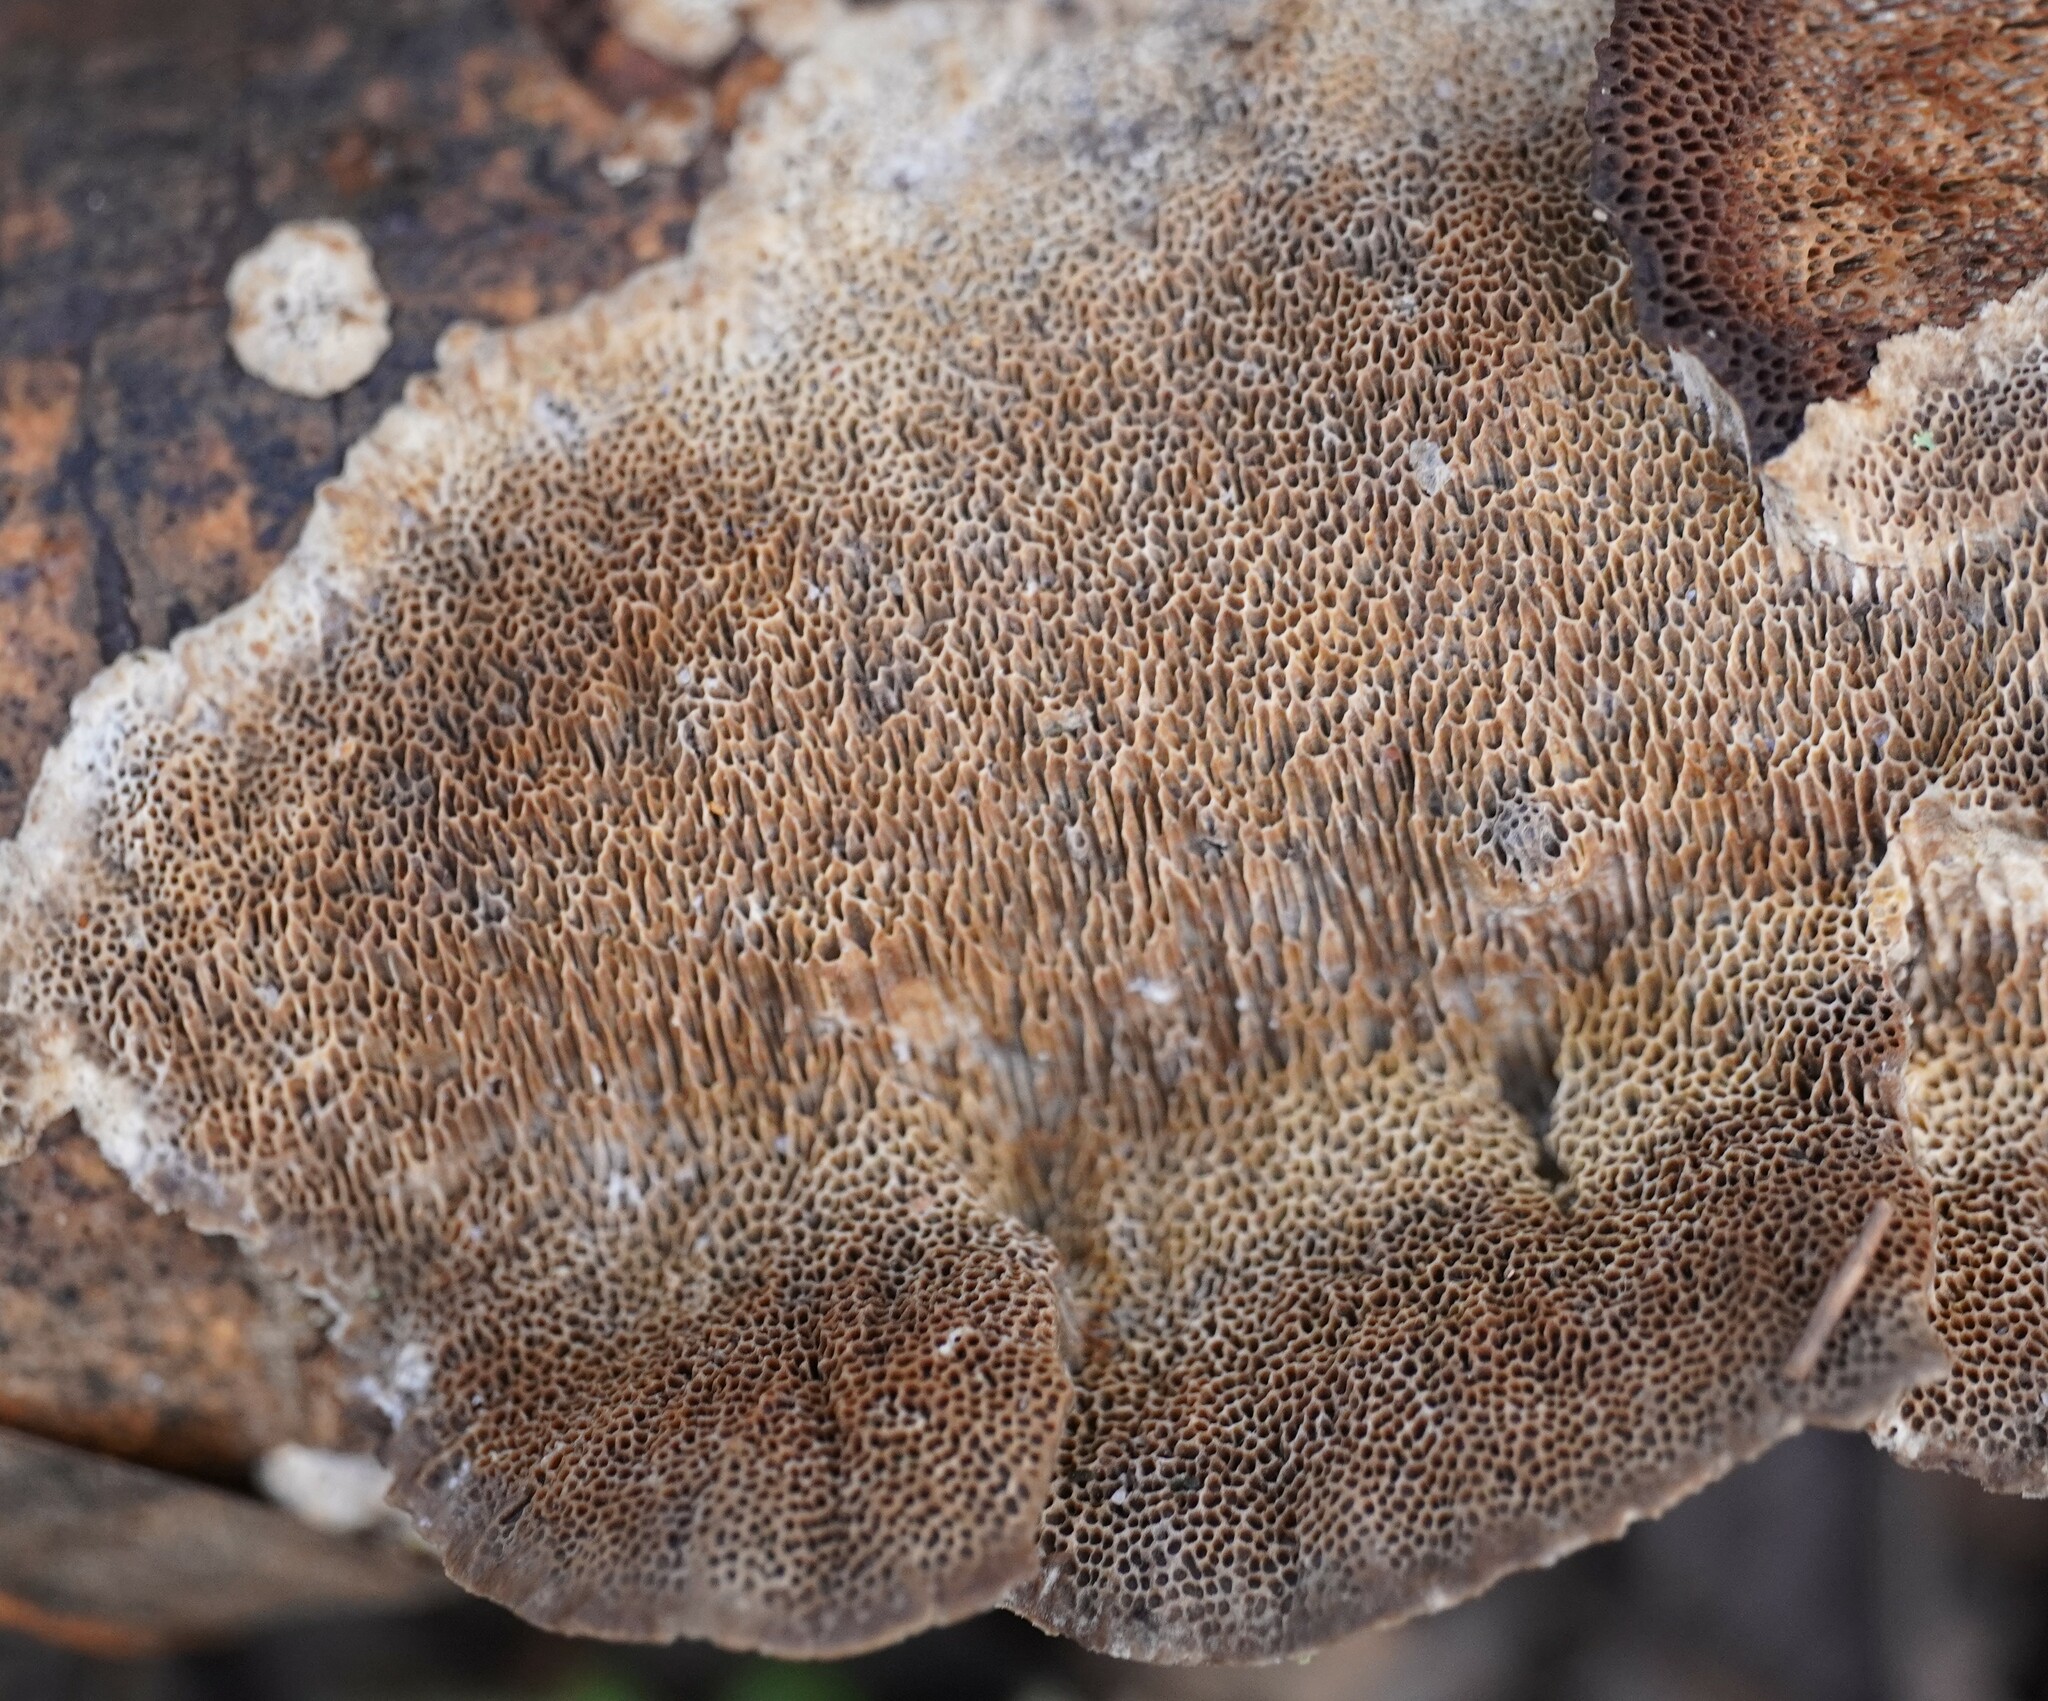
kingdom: Fungi
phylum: Basidiomycota
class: Agaricomycetes
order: Polyporales
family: Polyporaceae
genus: Coriolopsis
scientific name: Coriolopsis gallica
